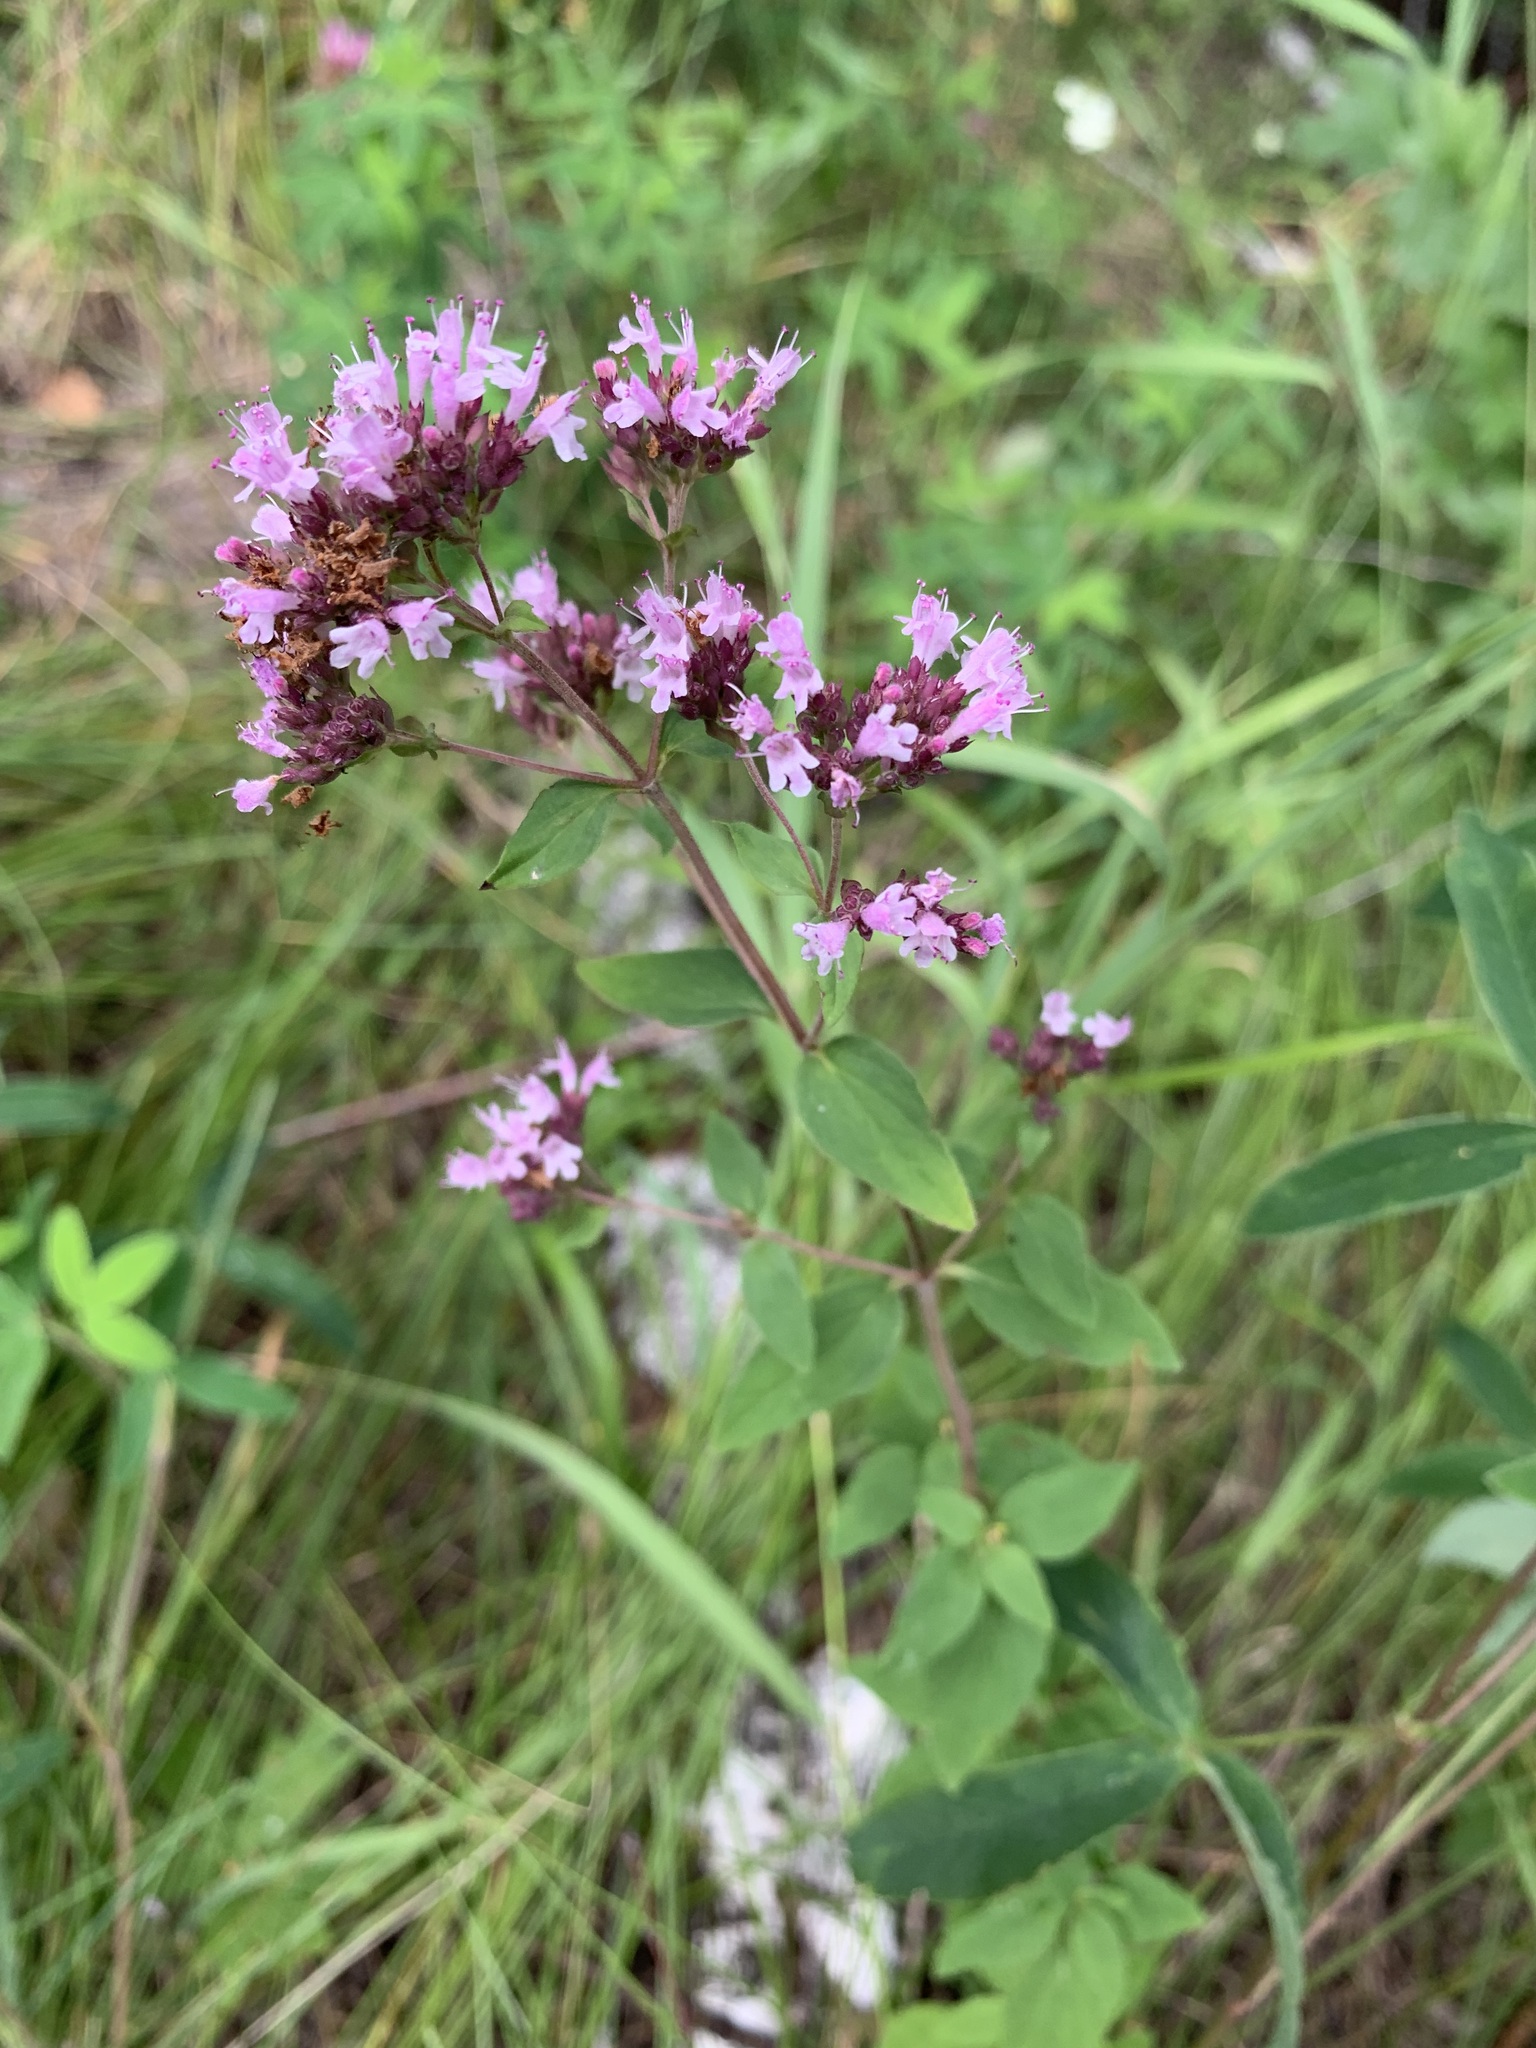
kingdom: Plantae
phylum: Tracheophyta
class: Magnoliopsida
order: Lamiales
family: Lamiaceae
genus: Origanum
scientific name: Origanum vulgare
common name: Wild marjoram
